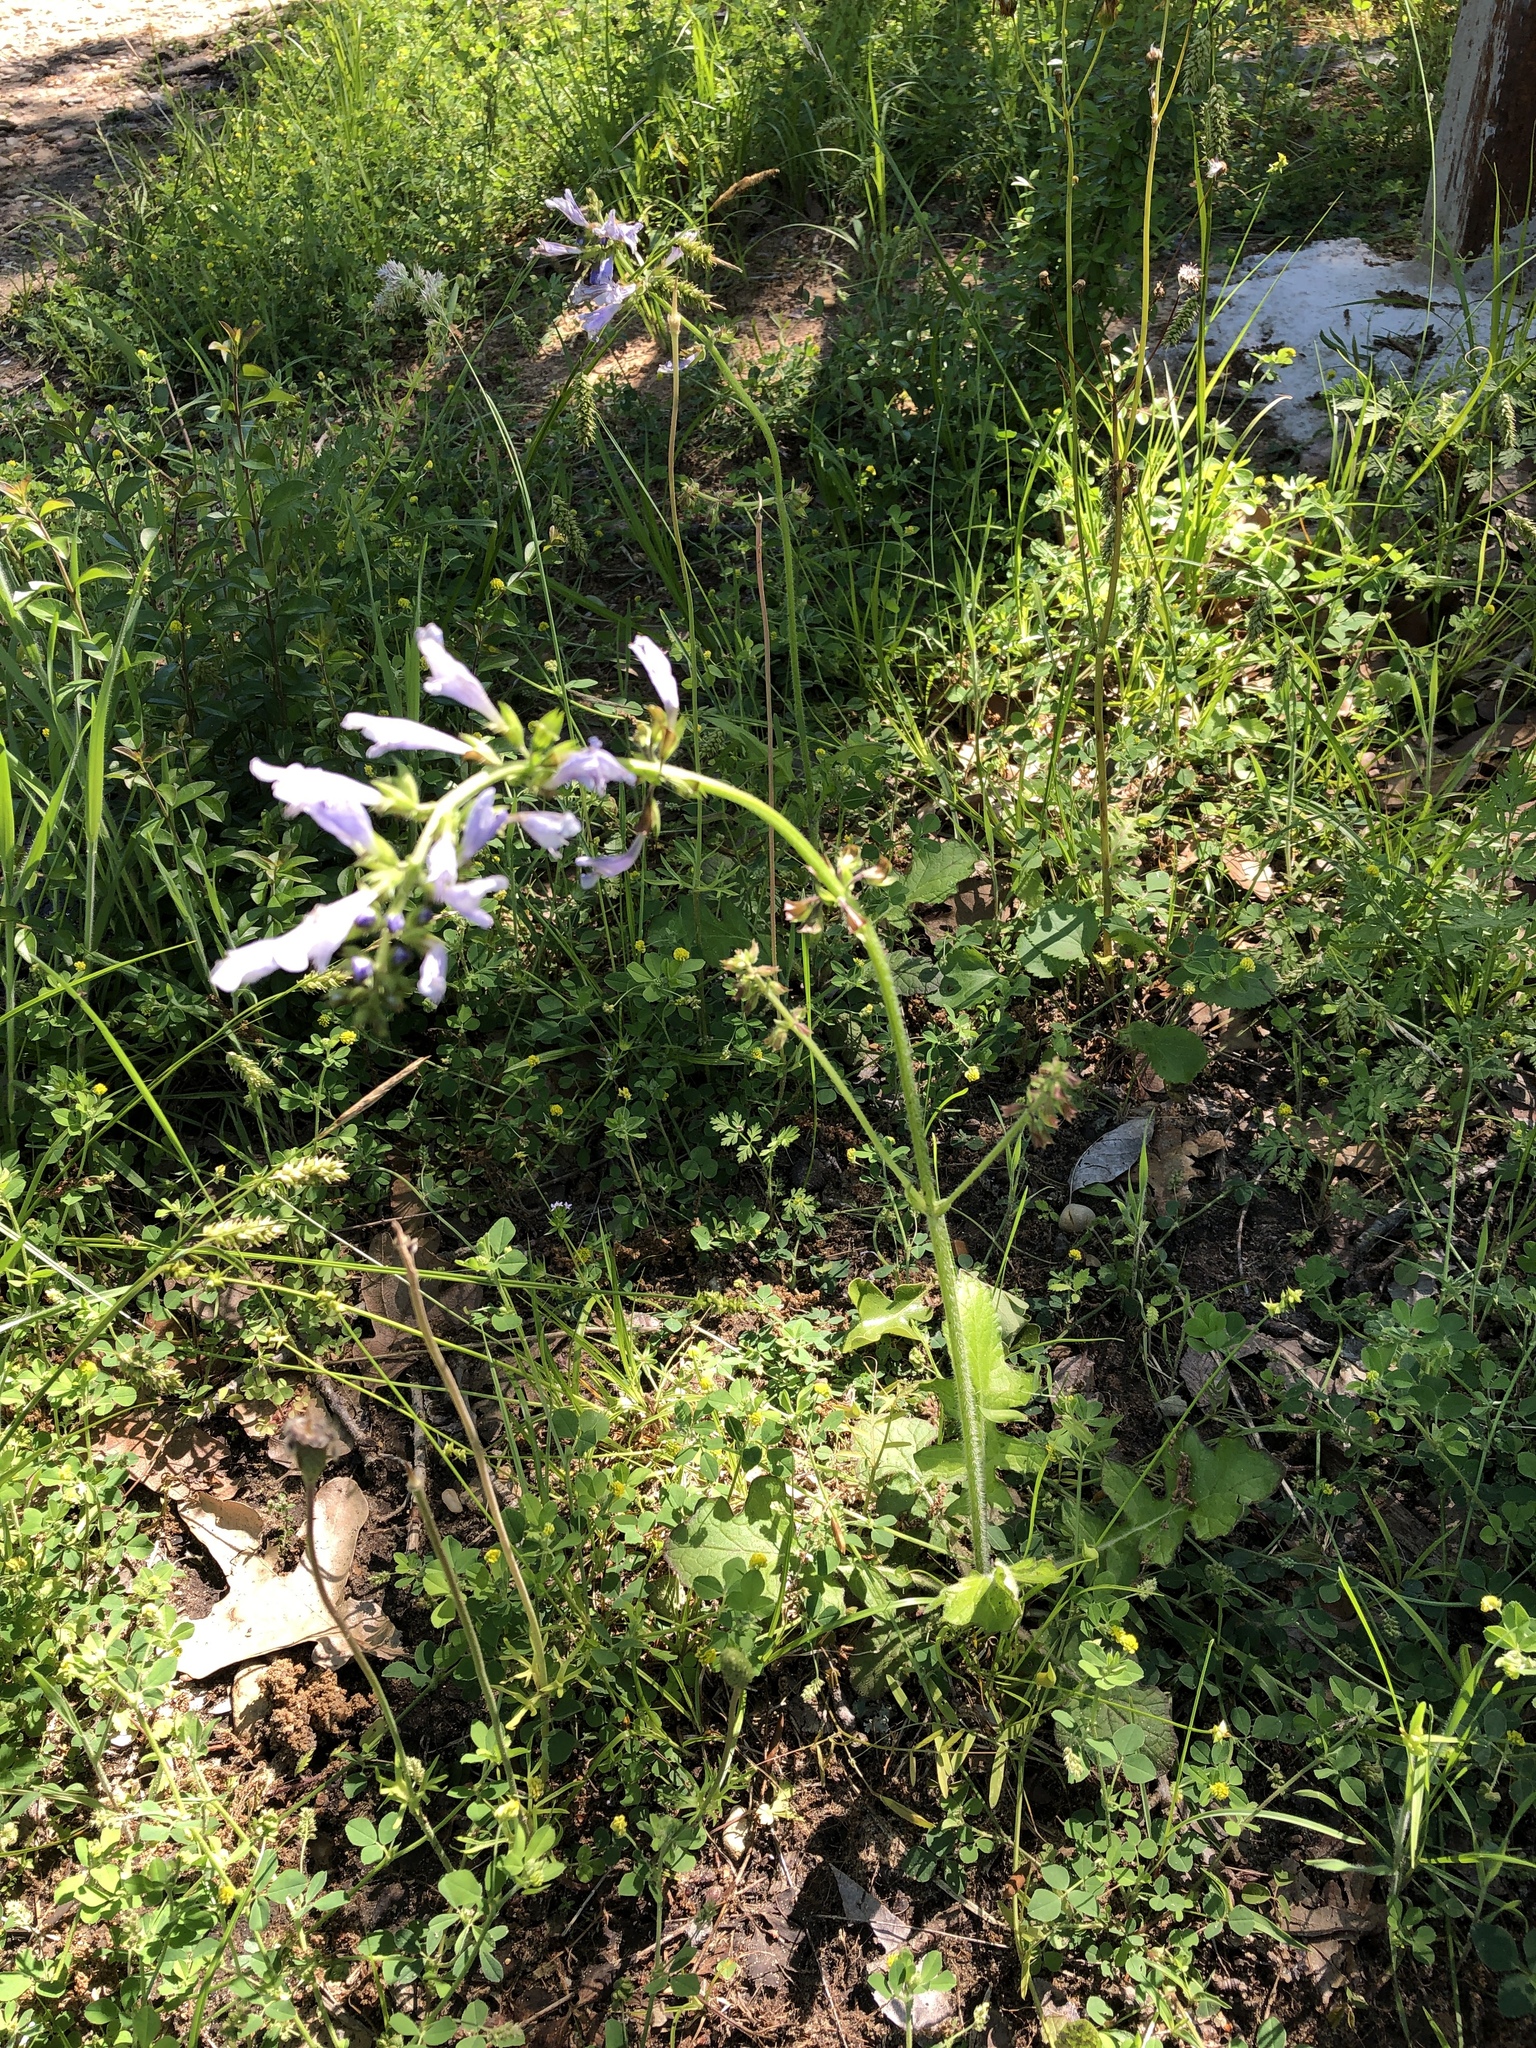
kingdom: Plantae
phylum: Tracheophyta
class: Magnoliopsida
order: Lamiales
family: Lamiaceae
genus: Salvia
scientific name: Salvia lyrata
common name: Cancerweed
